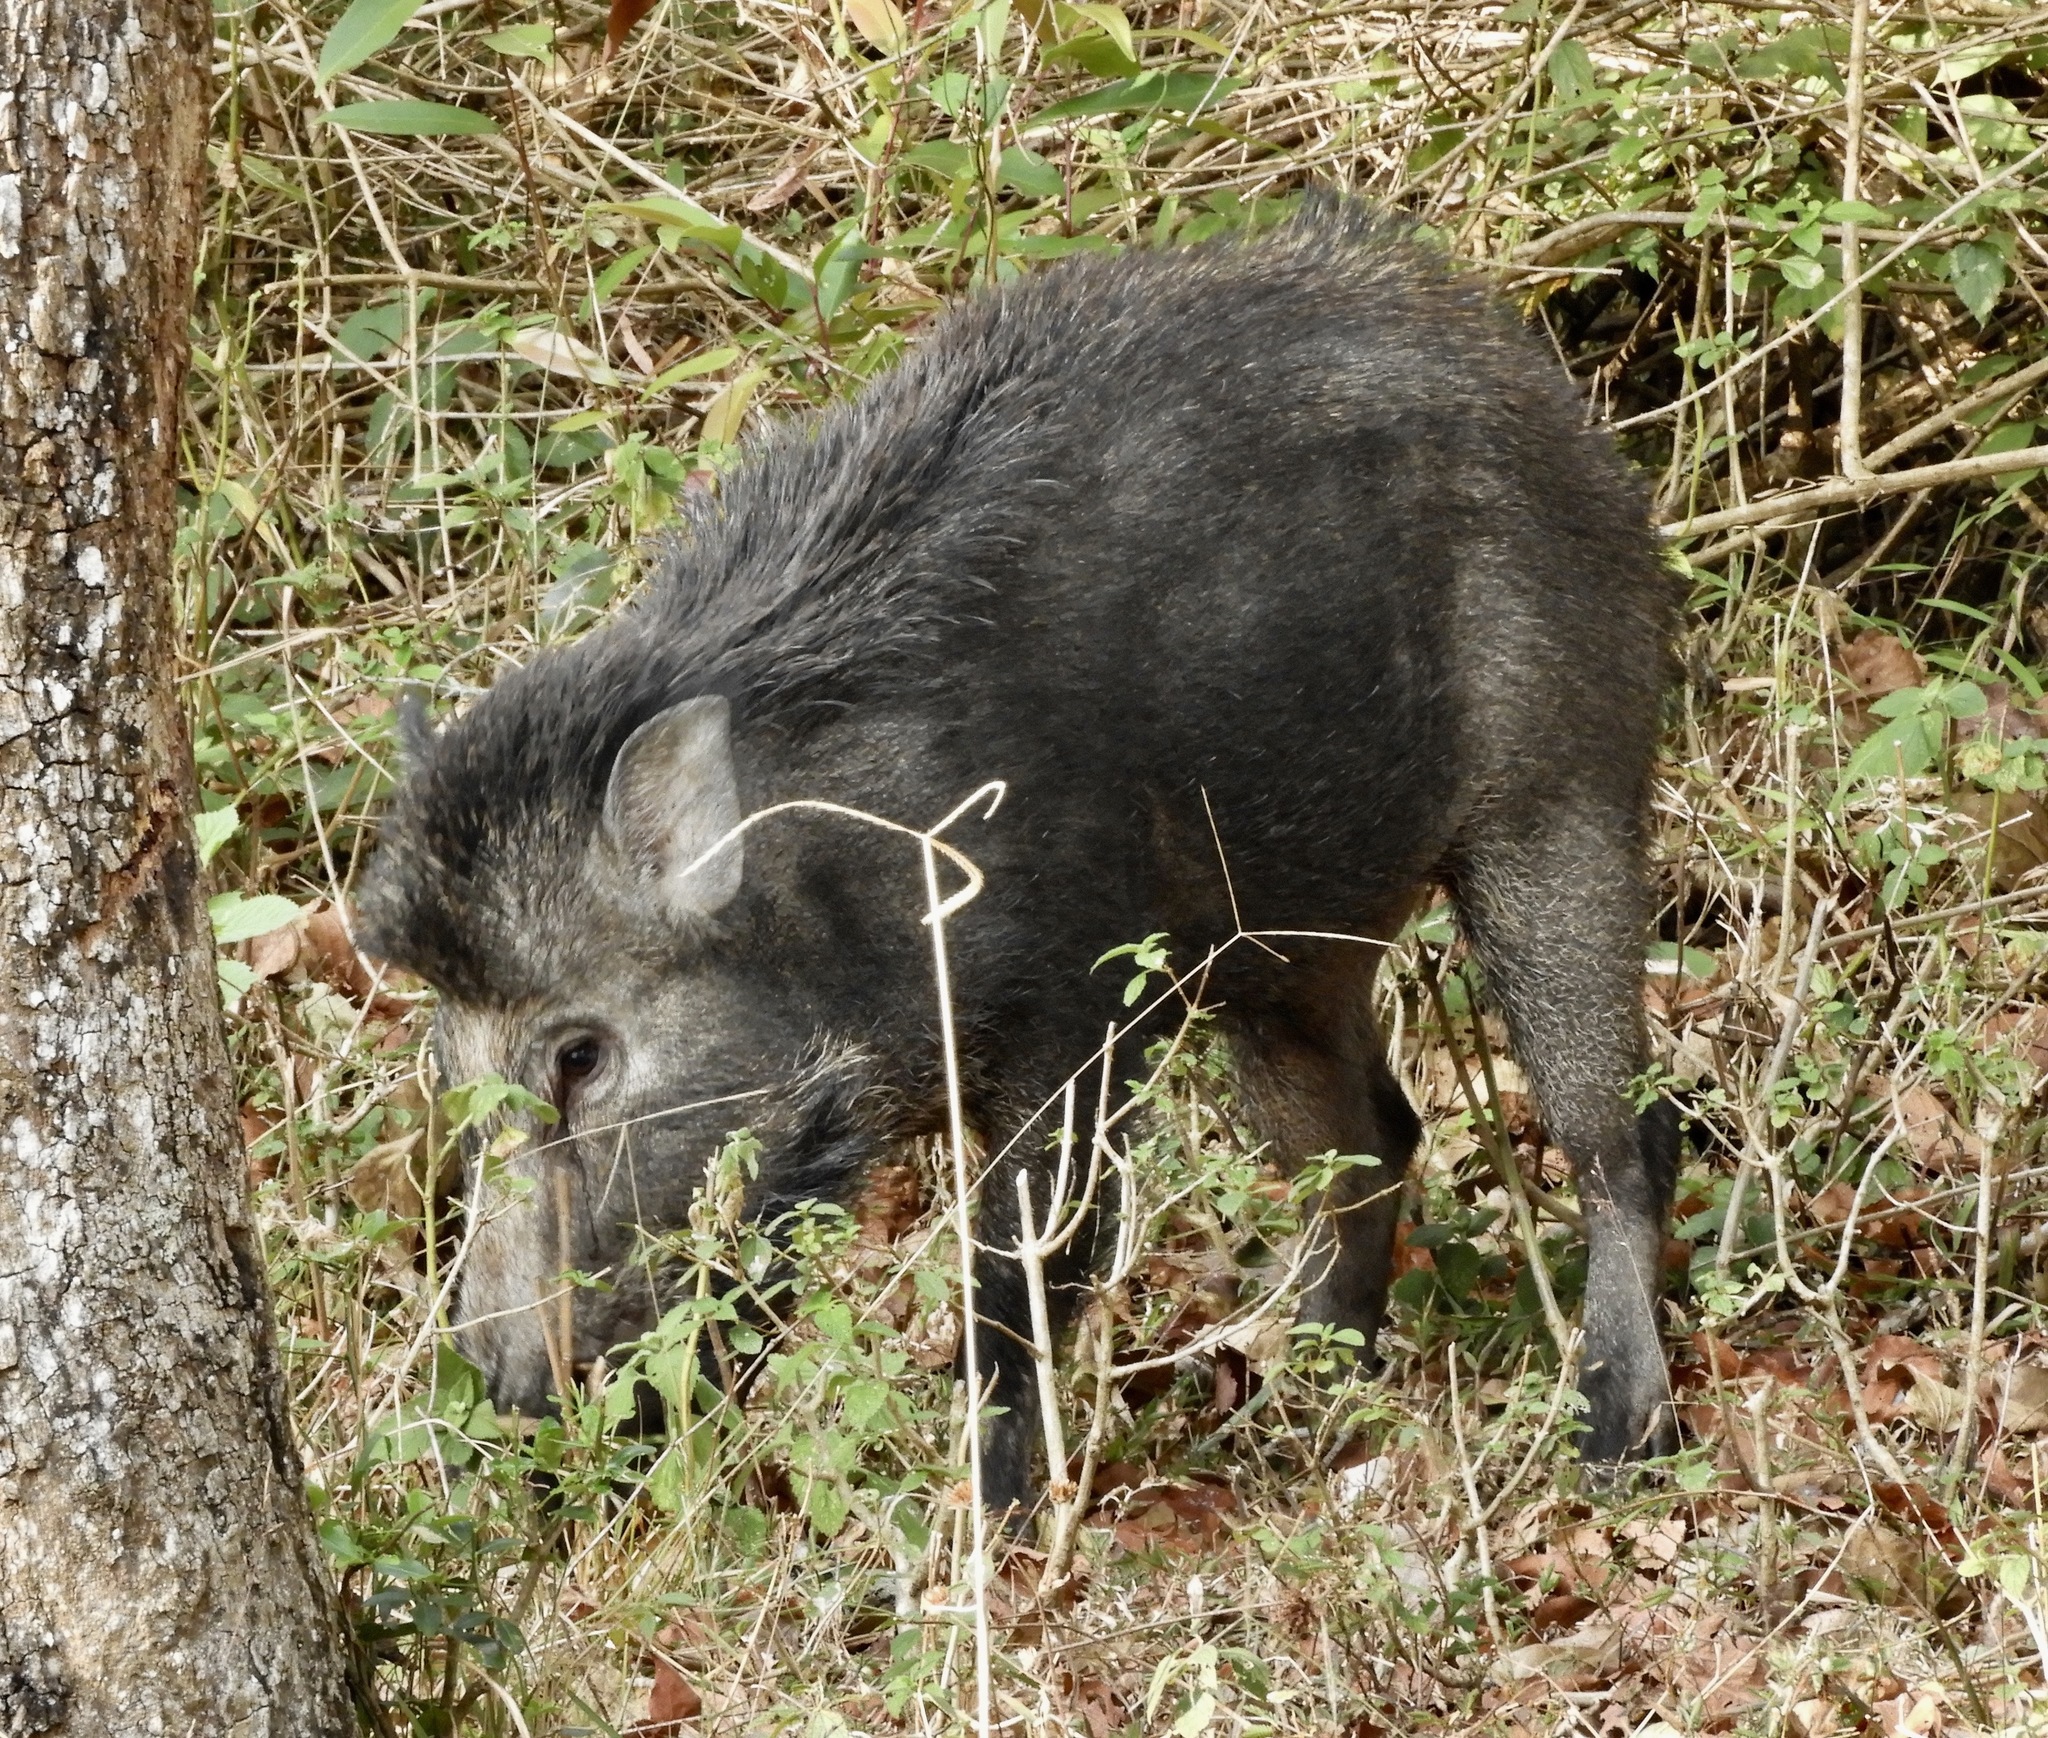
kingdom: Animalia
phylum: Chordata
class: Mammalia
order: Artiodactyla
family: Suidae
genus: Sus
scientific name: Sus scrofa
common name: Wild boar
